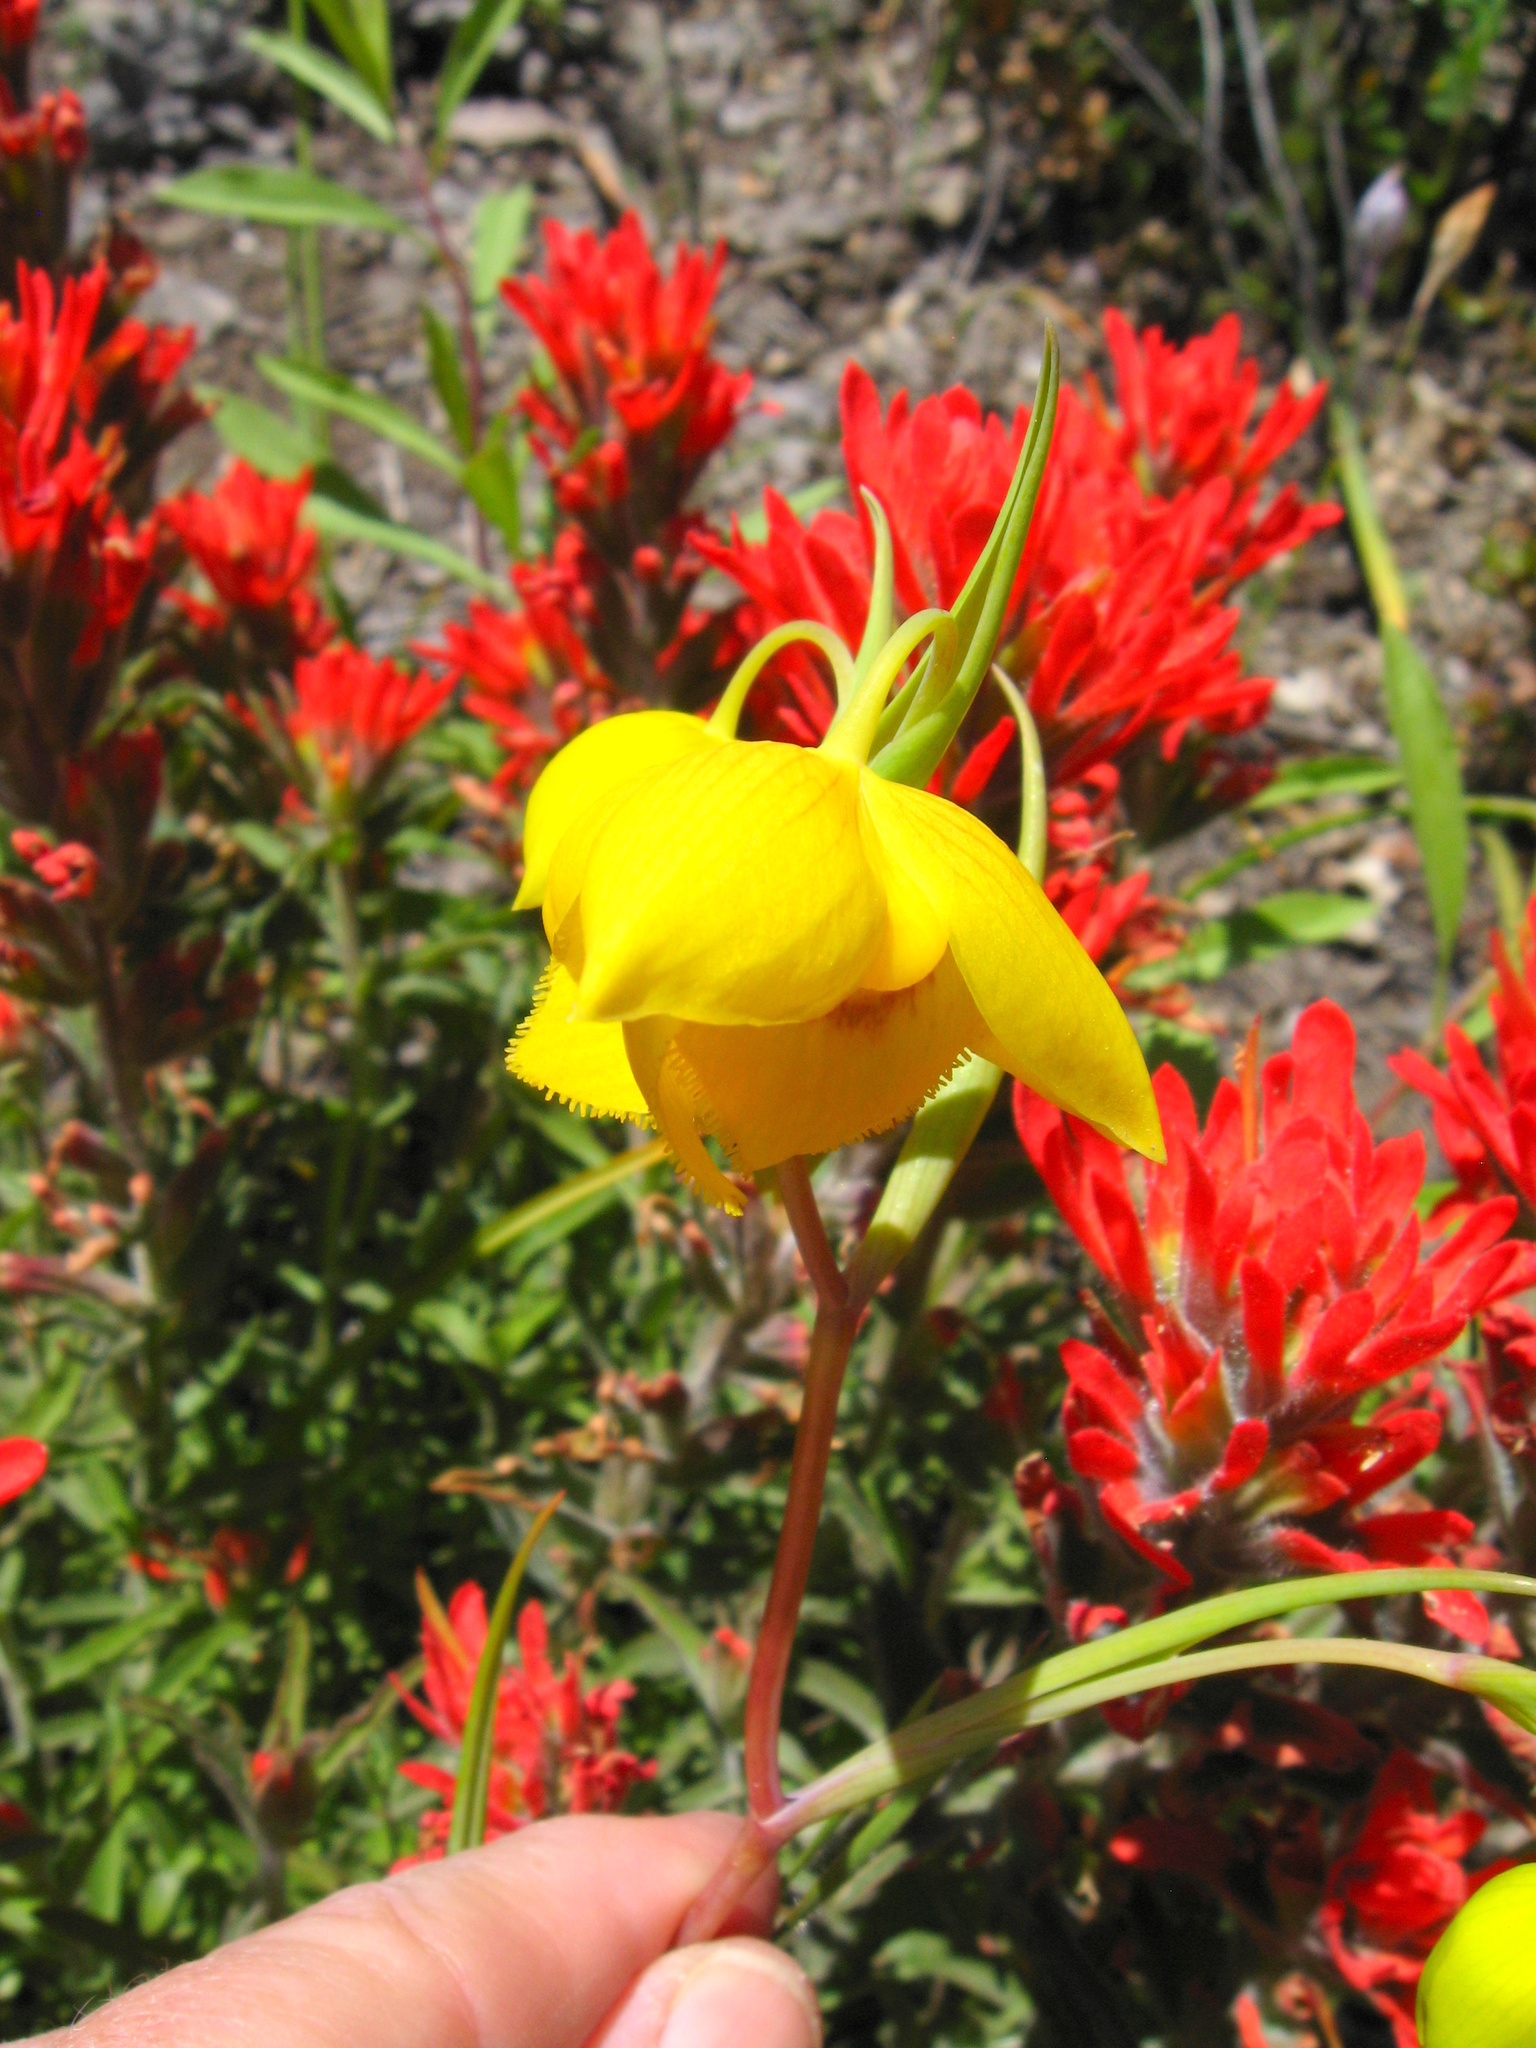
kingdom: Plantae
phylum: Tracheophyta
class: Liliopsida
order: Liliales
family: Liliaceae
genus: Calochortus
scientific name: Calochortus amabilis
